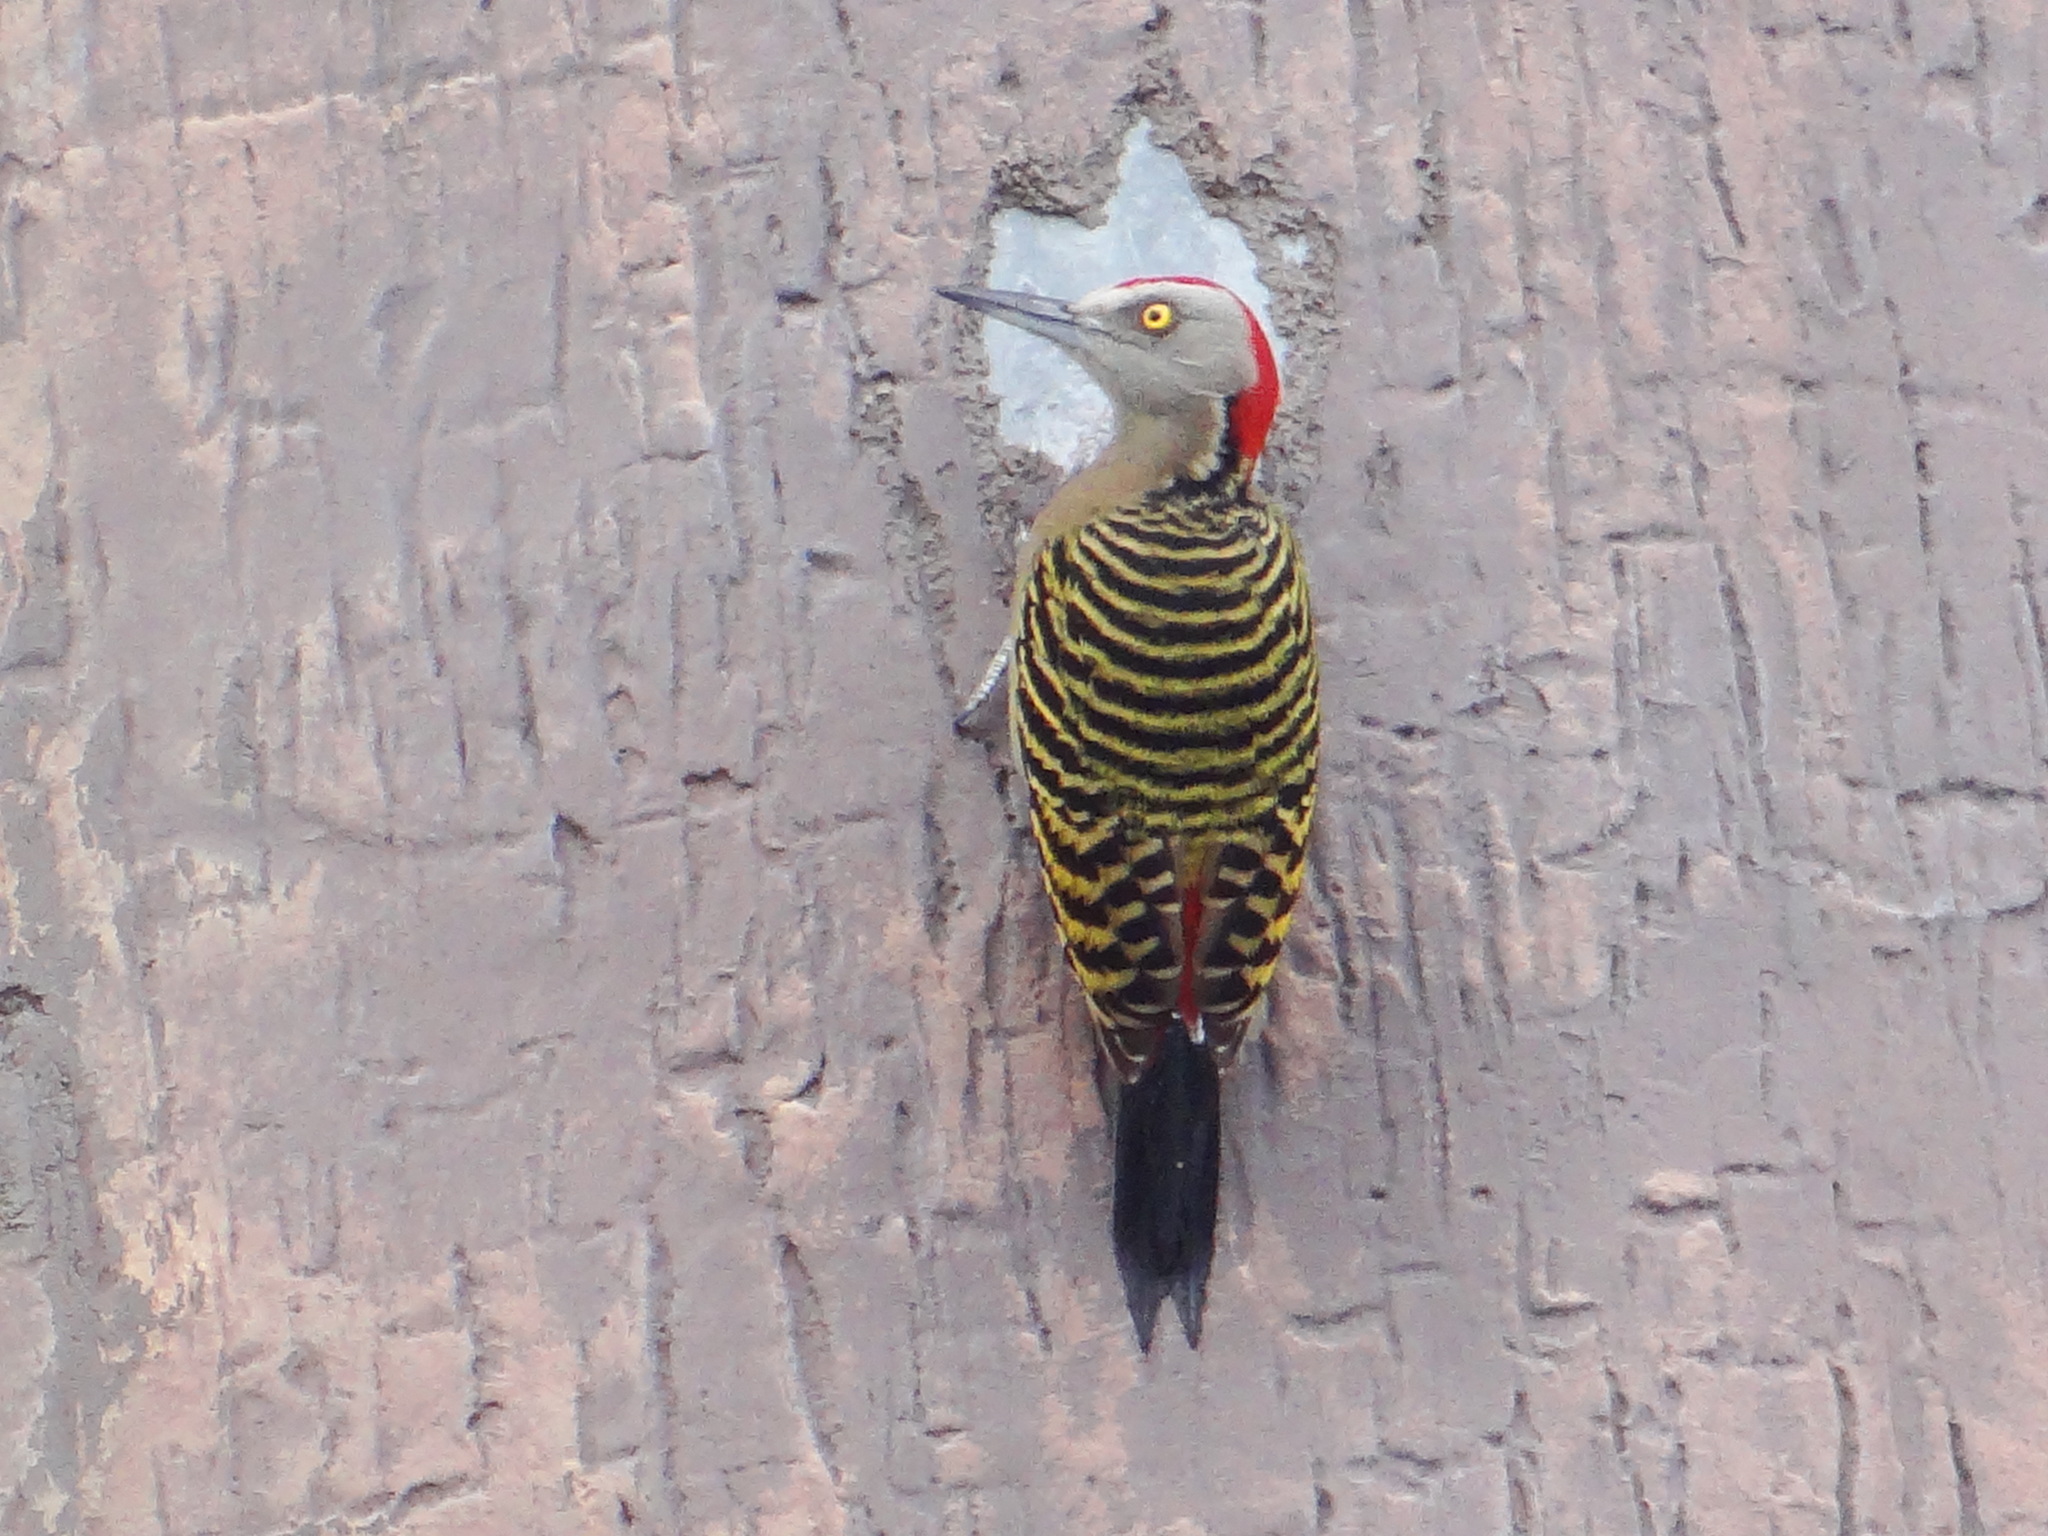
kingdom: Animalia
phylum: Chordata
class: Aves
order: Piciformes
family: Picidae
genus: Melanerpes
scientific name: Melanerpes striatus
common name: Hispaniolan woodpecker
